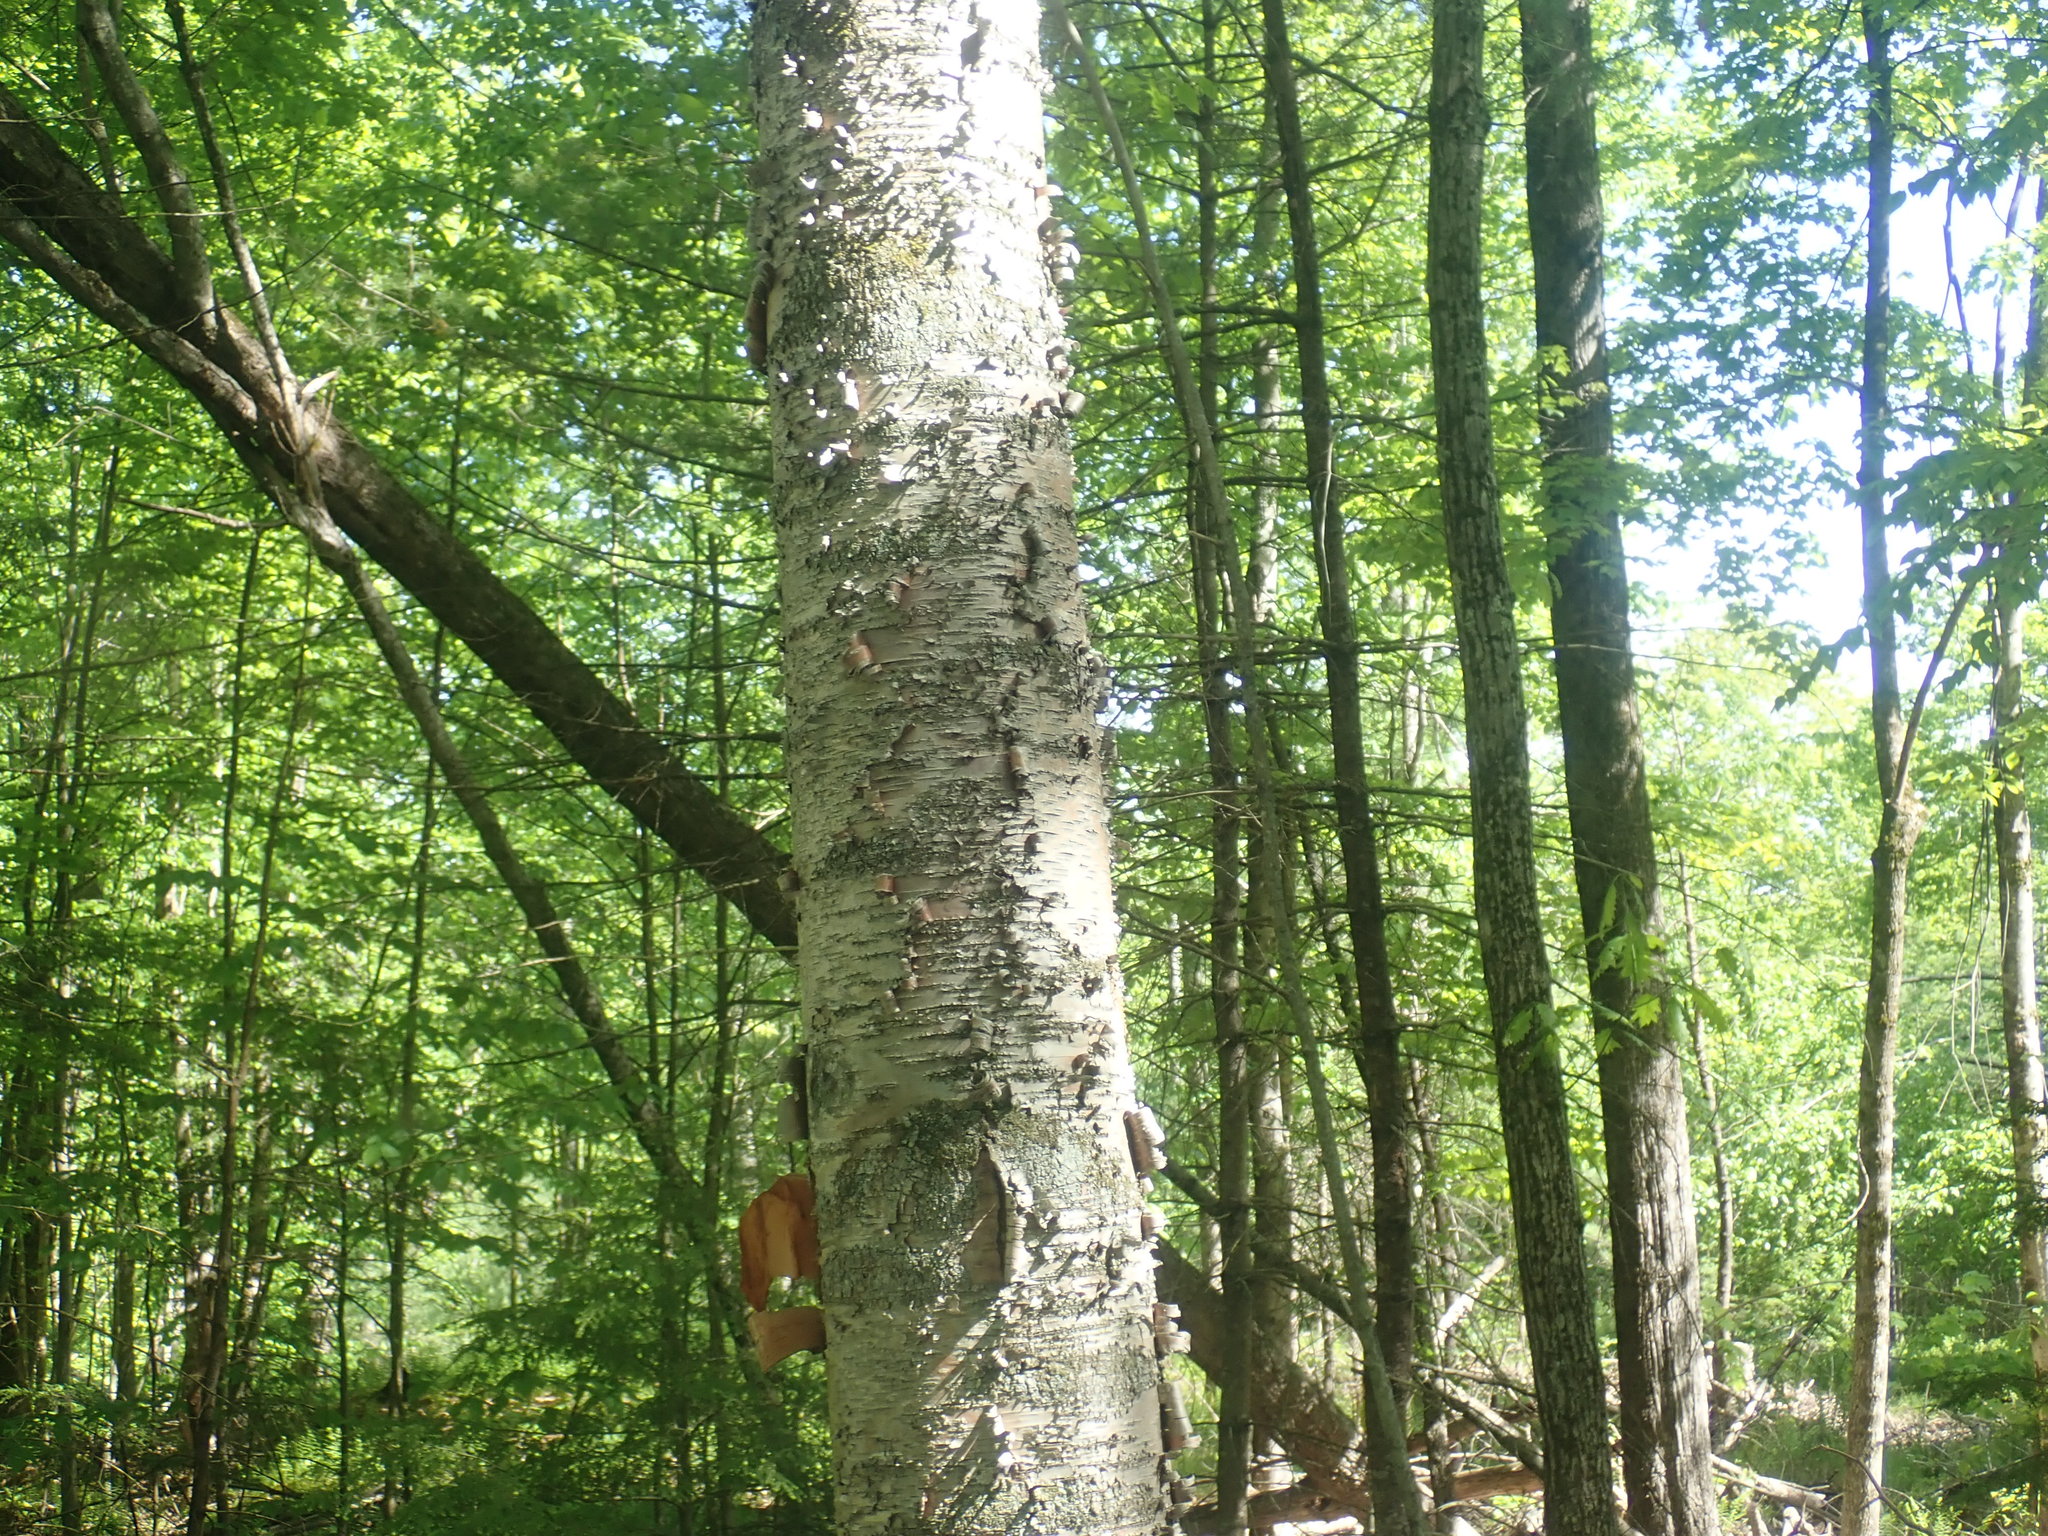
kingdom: Plantae
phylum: Tracheophyta
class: Magnoliopsida
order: Fagales
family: Betulaceae
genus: Betula
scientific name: Betula papyrifera
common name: Paper birch
